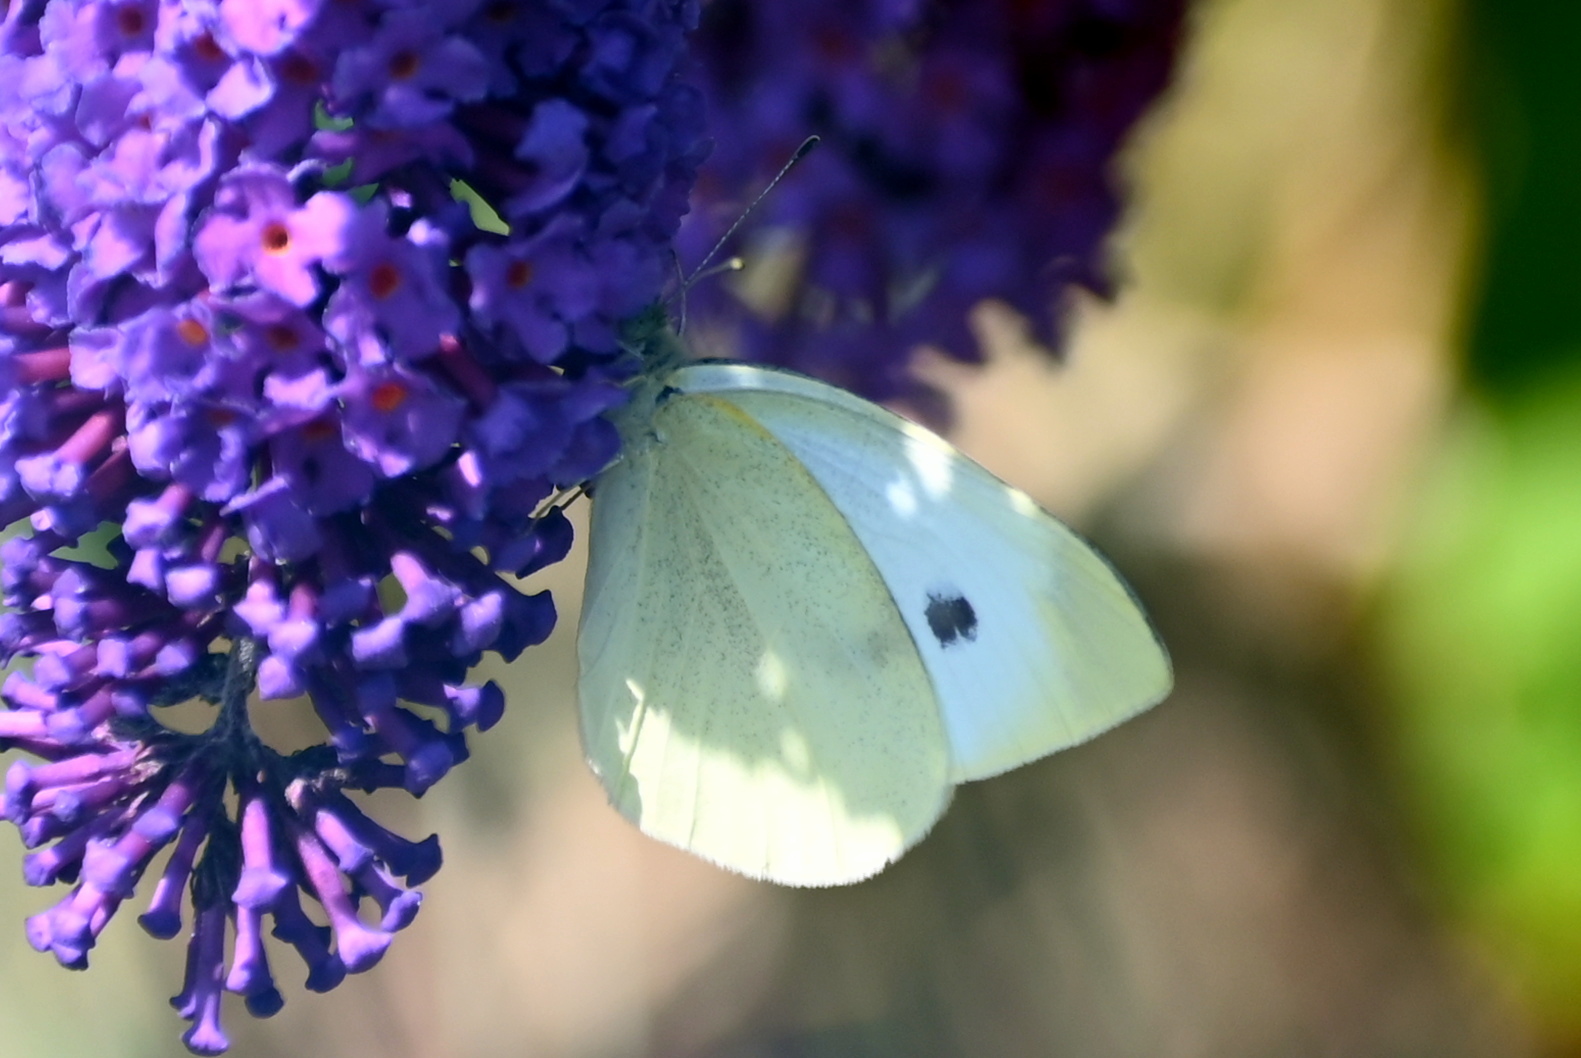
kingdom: Animalia
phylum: Arthropoda
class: Insecta
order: Lepidoptera
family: Pieridae
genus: Pieris
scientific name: Pieris rapae
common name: Small white
